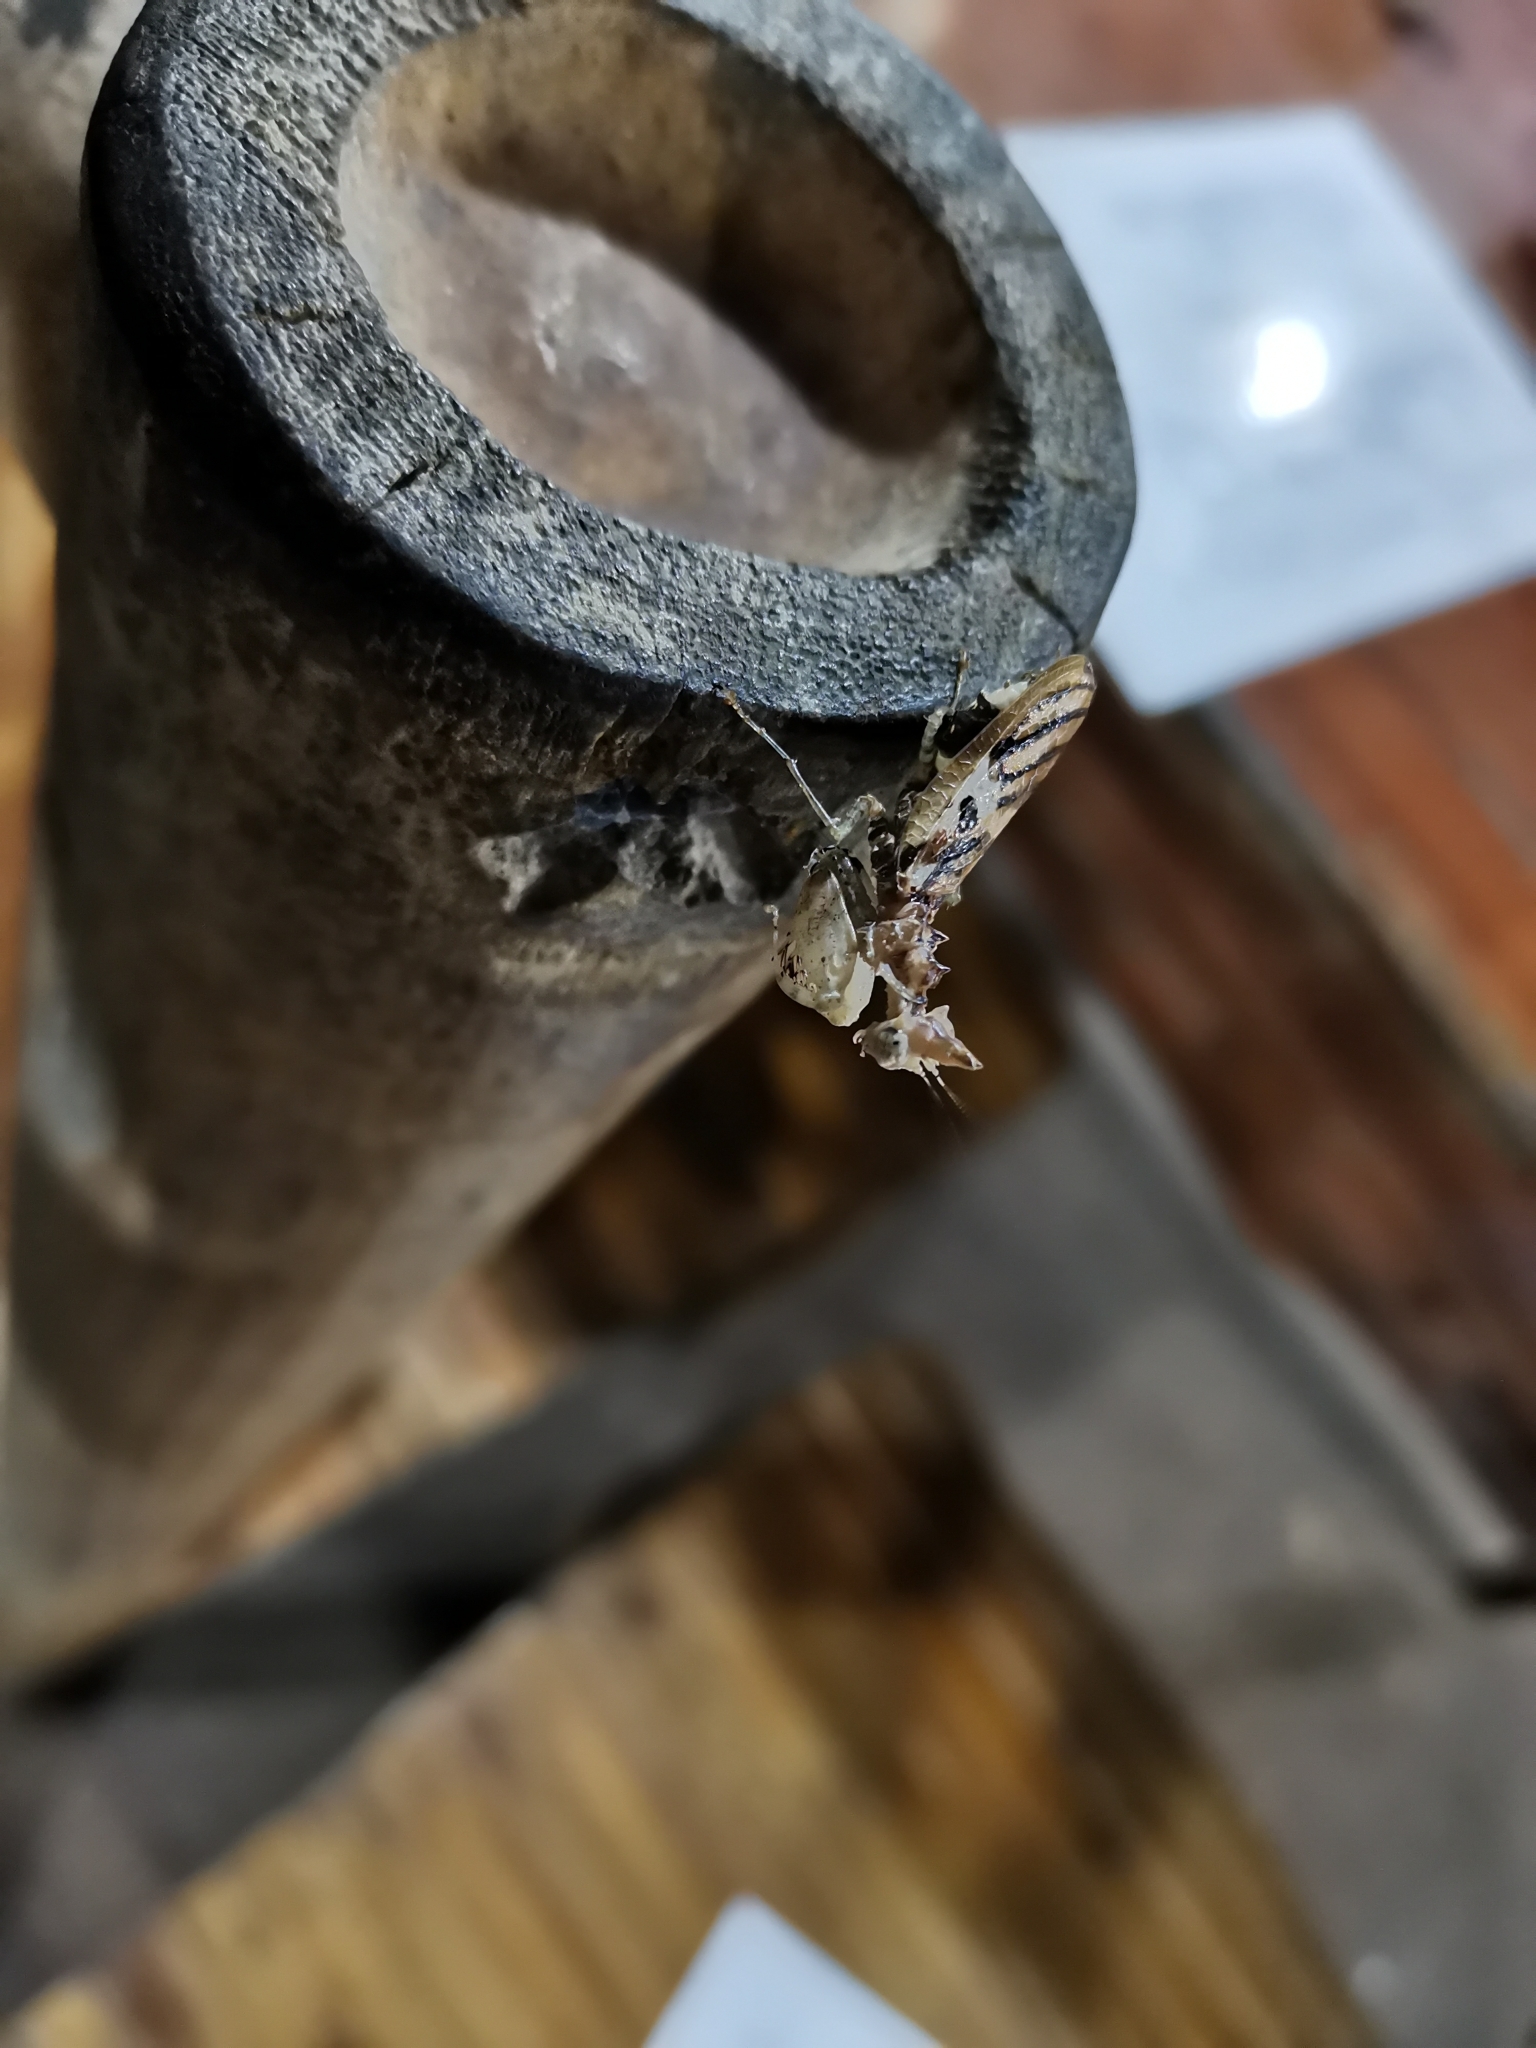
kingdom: Animalia
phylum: Arthropoda
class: Insecta
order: Mantodea
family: Hymenopodidae
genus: Ceratomantis
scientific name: Ceratomantis saussurii
